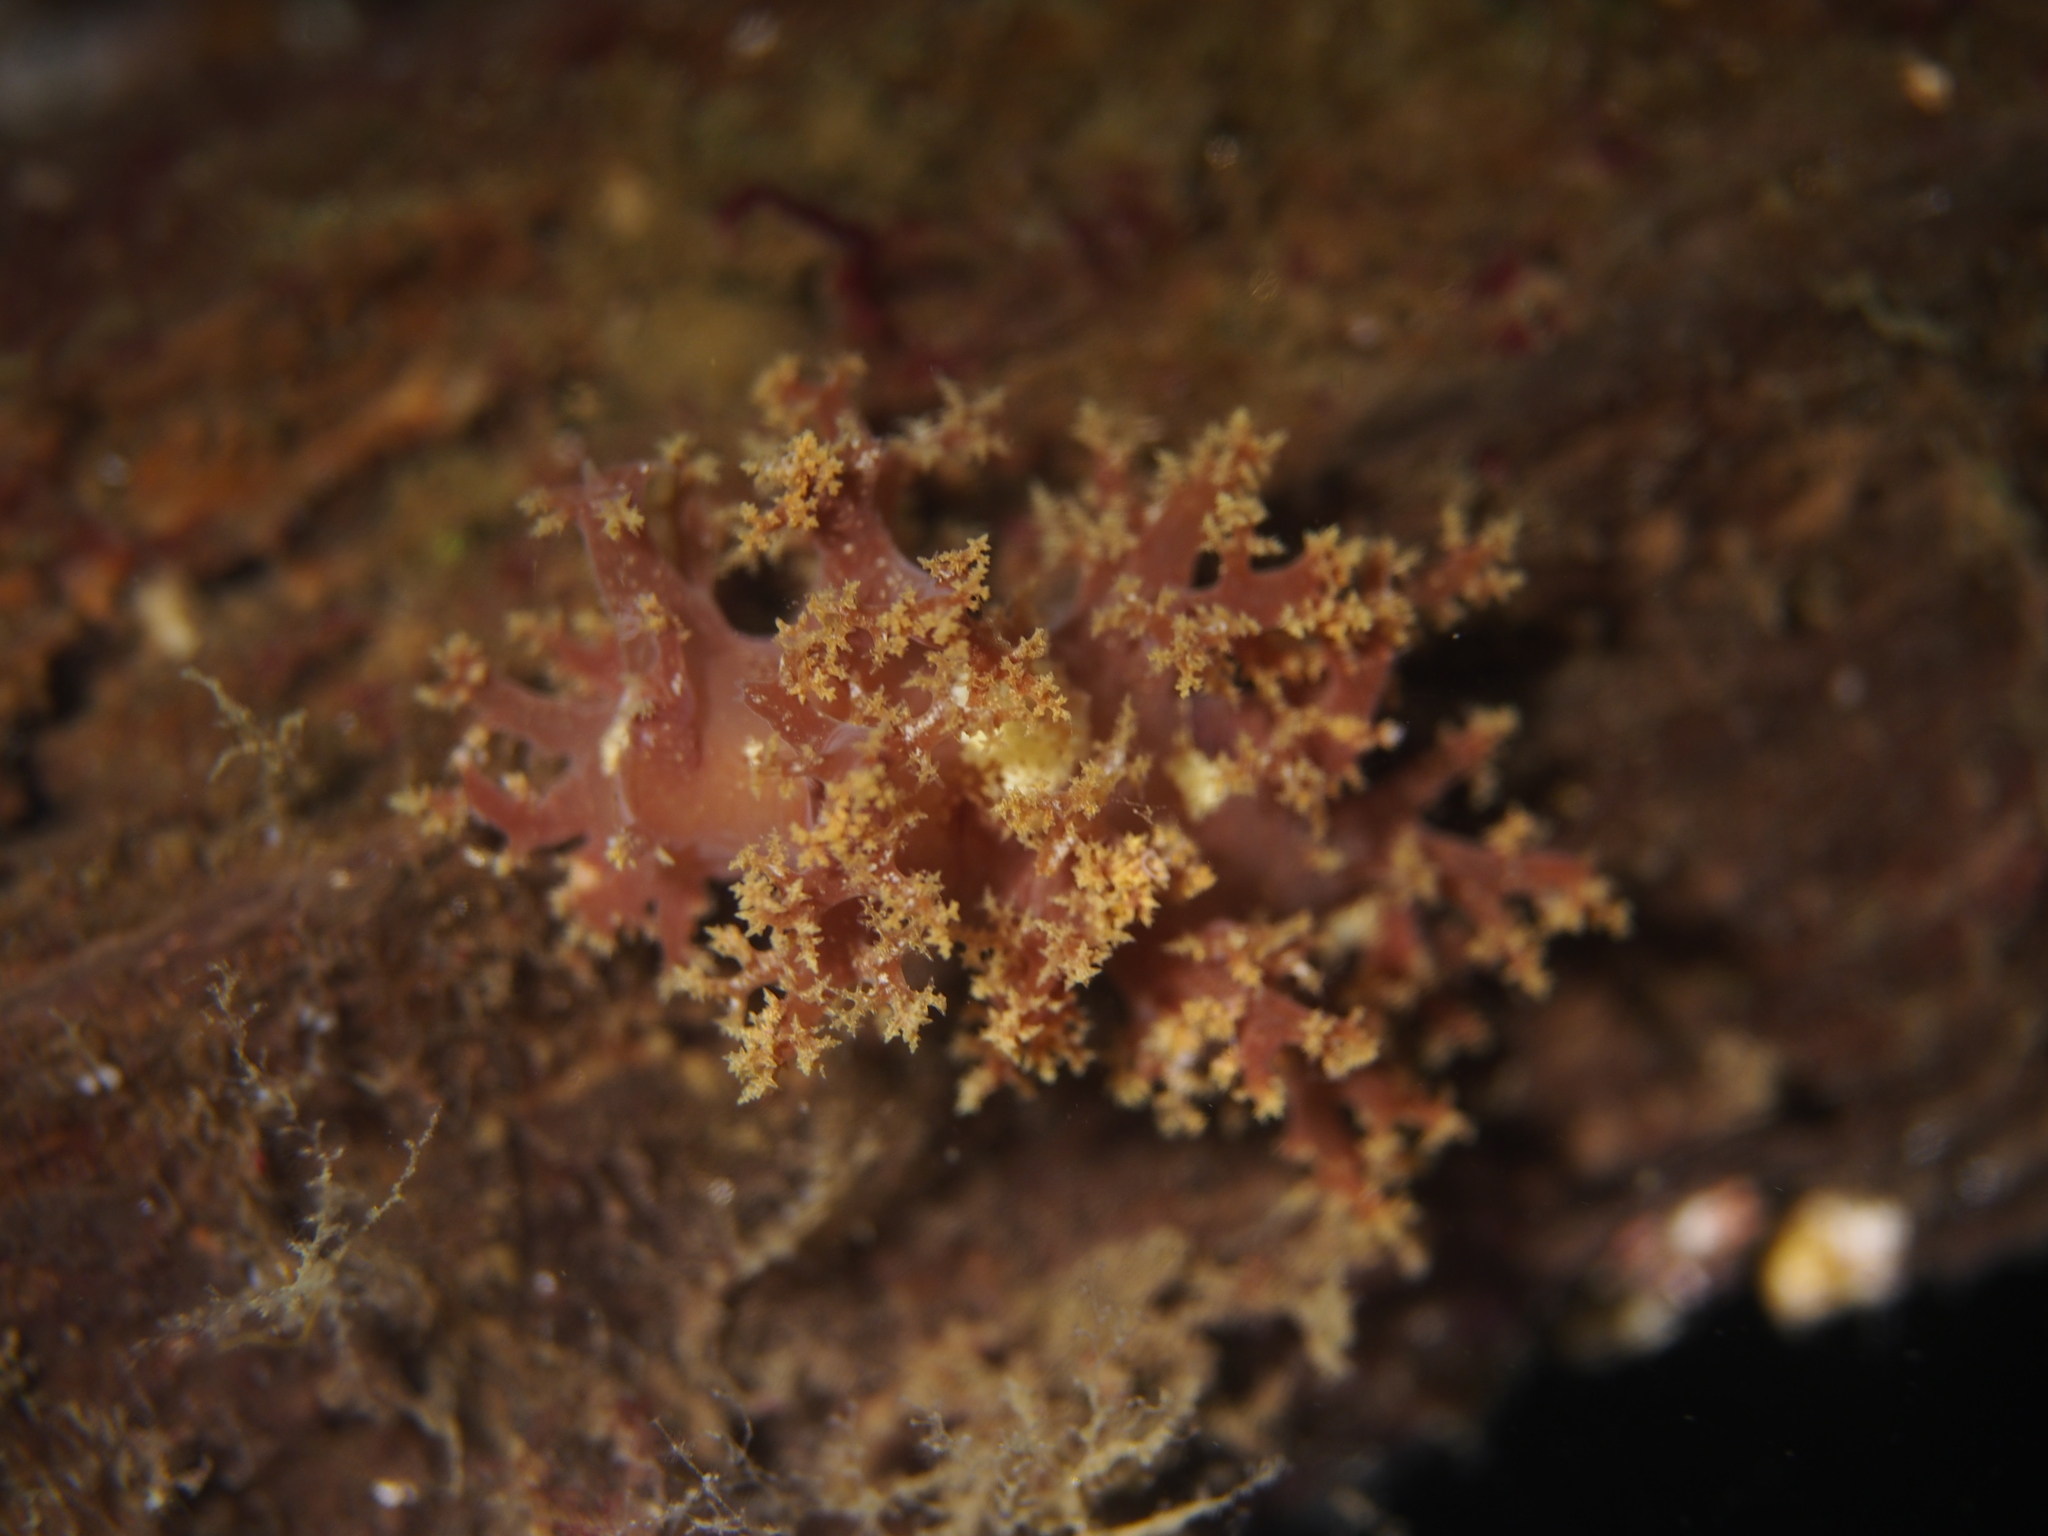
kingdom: Animalia
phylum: Mollusca
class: Gastropoda
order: Nudibranchia
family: Dendronotidae
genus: Dendronotus
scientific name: Dendronotus frondosus
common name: Bushy-backed nudibranch
